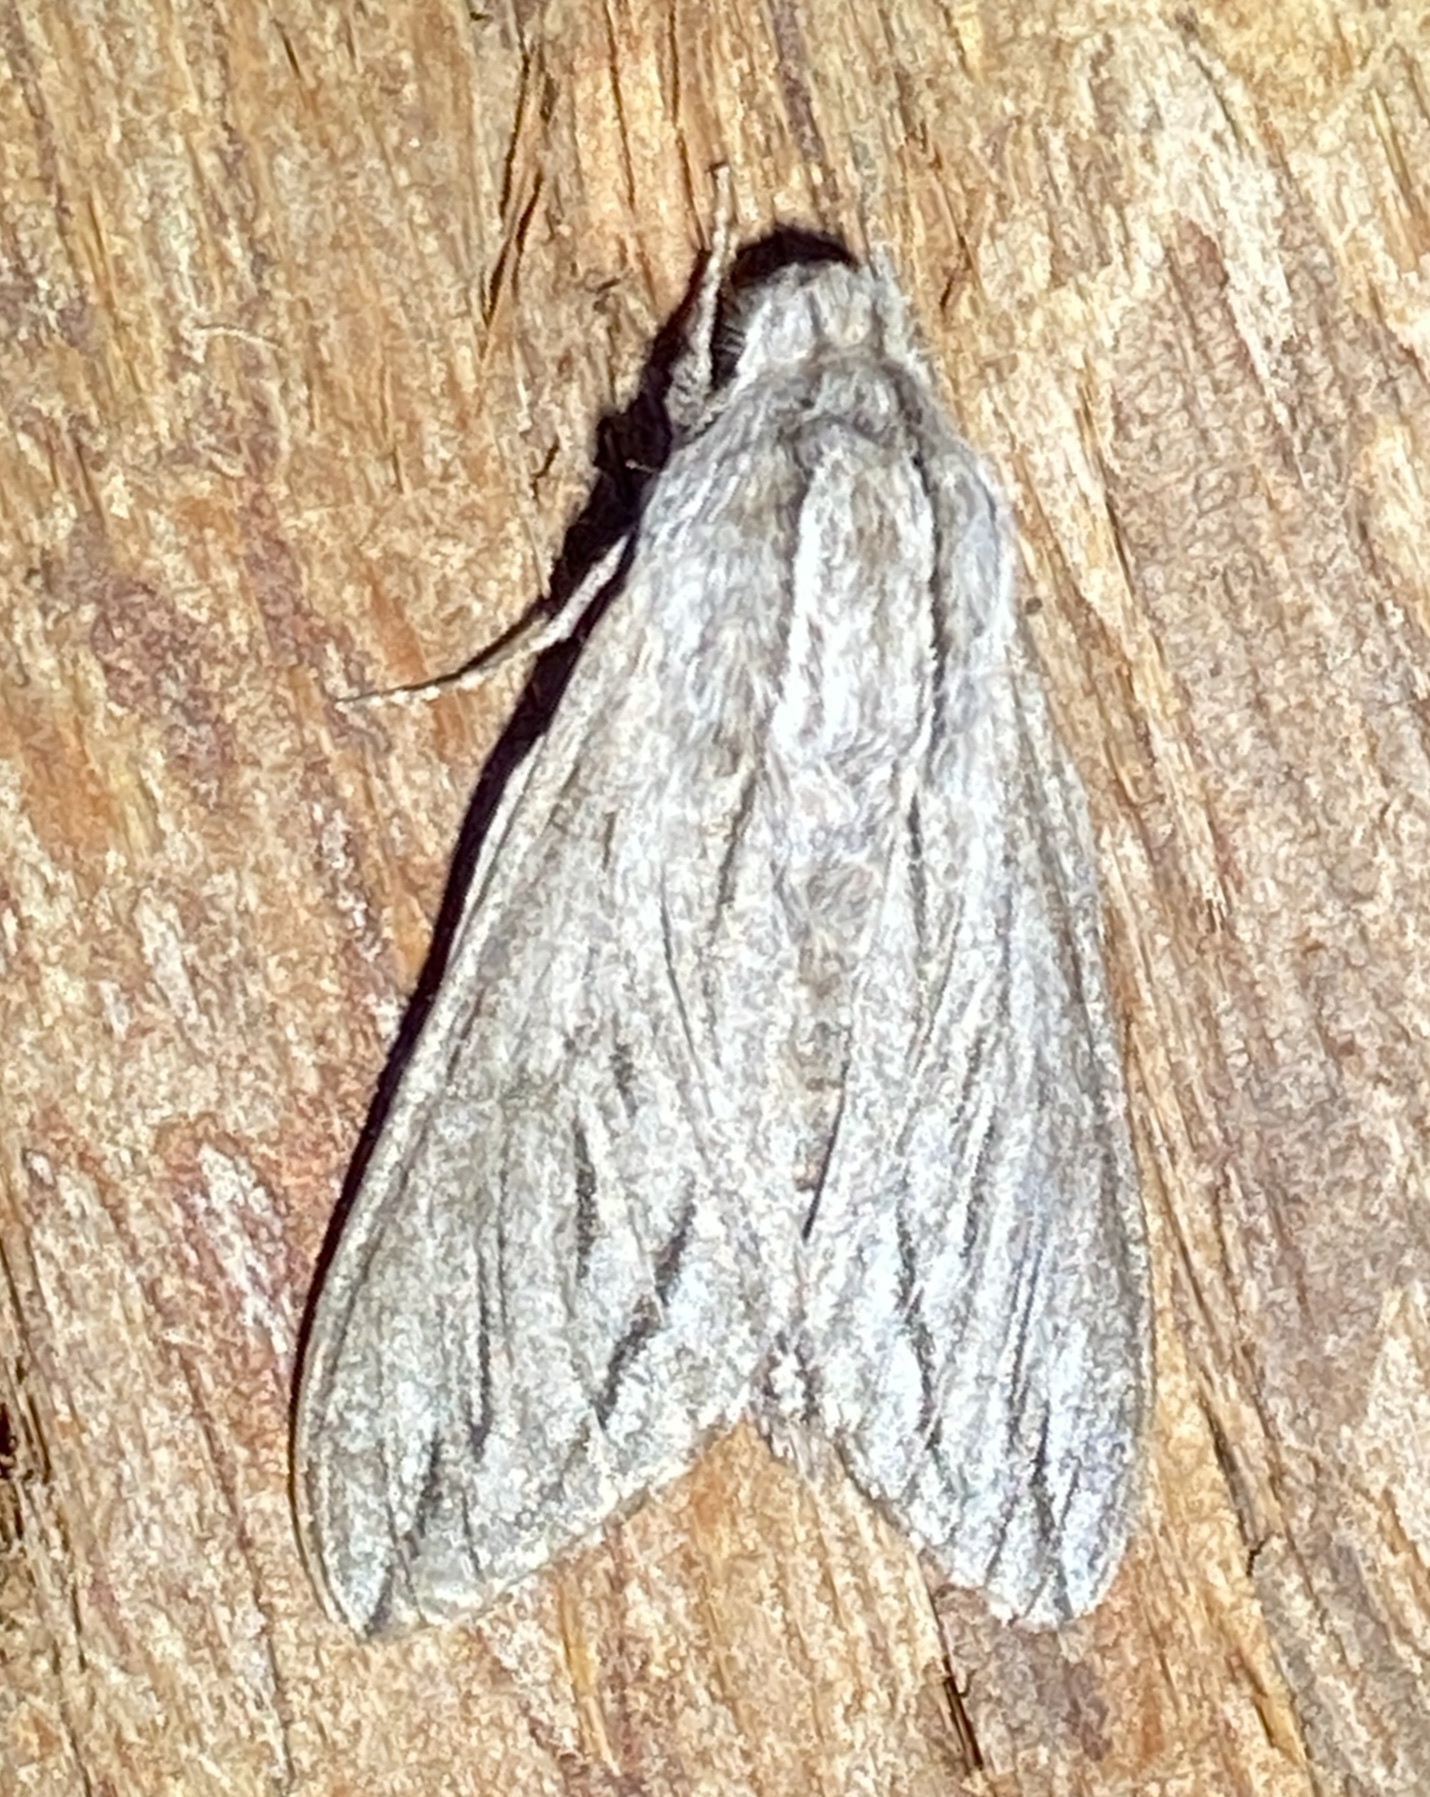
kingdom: Animalia
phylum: Arthropoda
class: Insecta
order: Lepidoptera
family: Sphingidae
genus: Sphinx
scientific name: Sphinx sequoiae
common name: Sequoia sphinx
